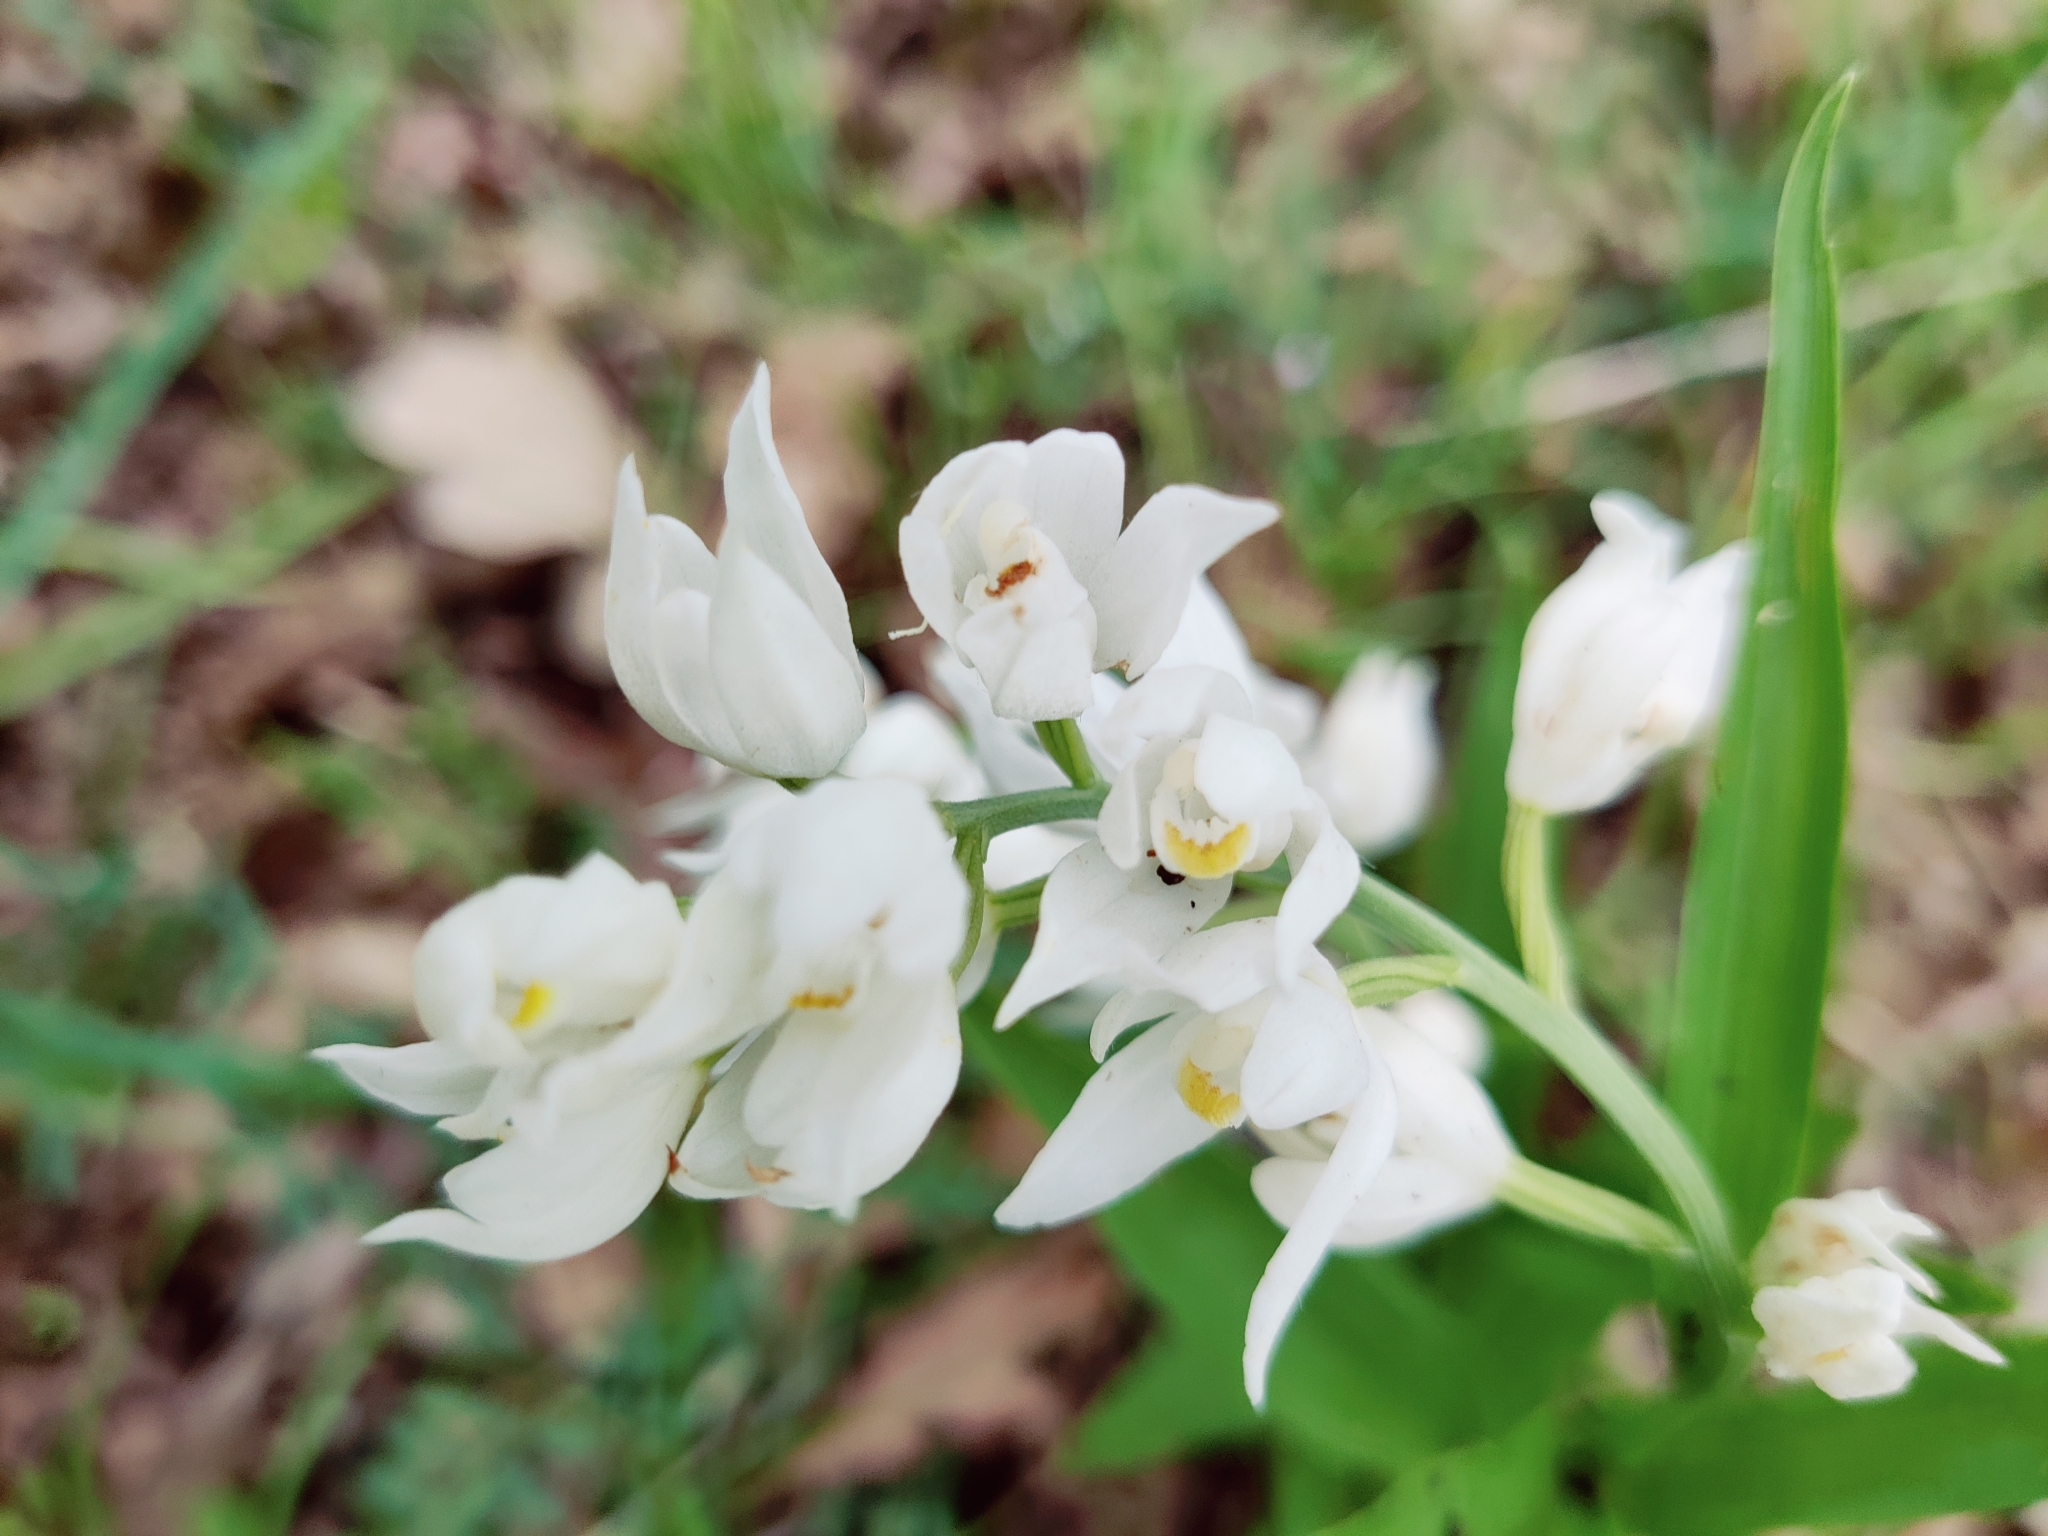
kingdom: Plantae
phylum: Tracheophyta
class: Liliopsida
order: Asparagales
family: Orchidaceae
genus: Cephalanthera
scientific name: Cephalanthera longifolia
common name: Narrow-leaved helleborine
